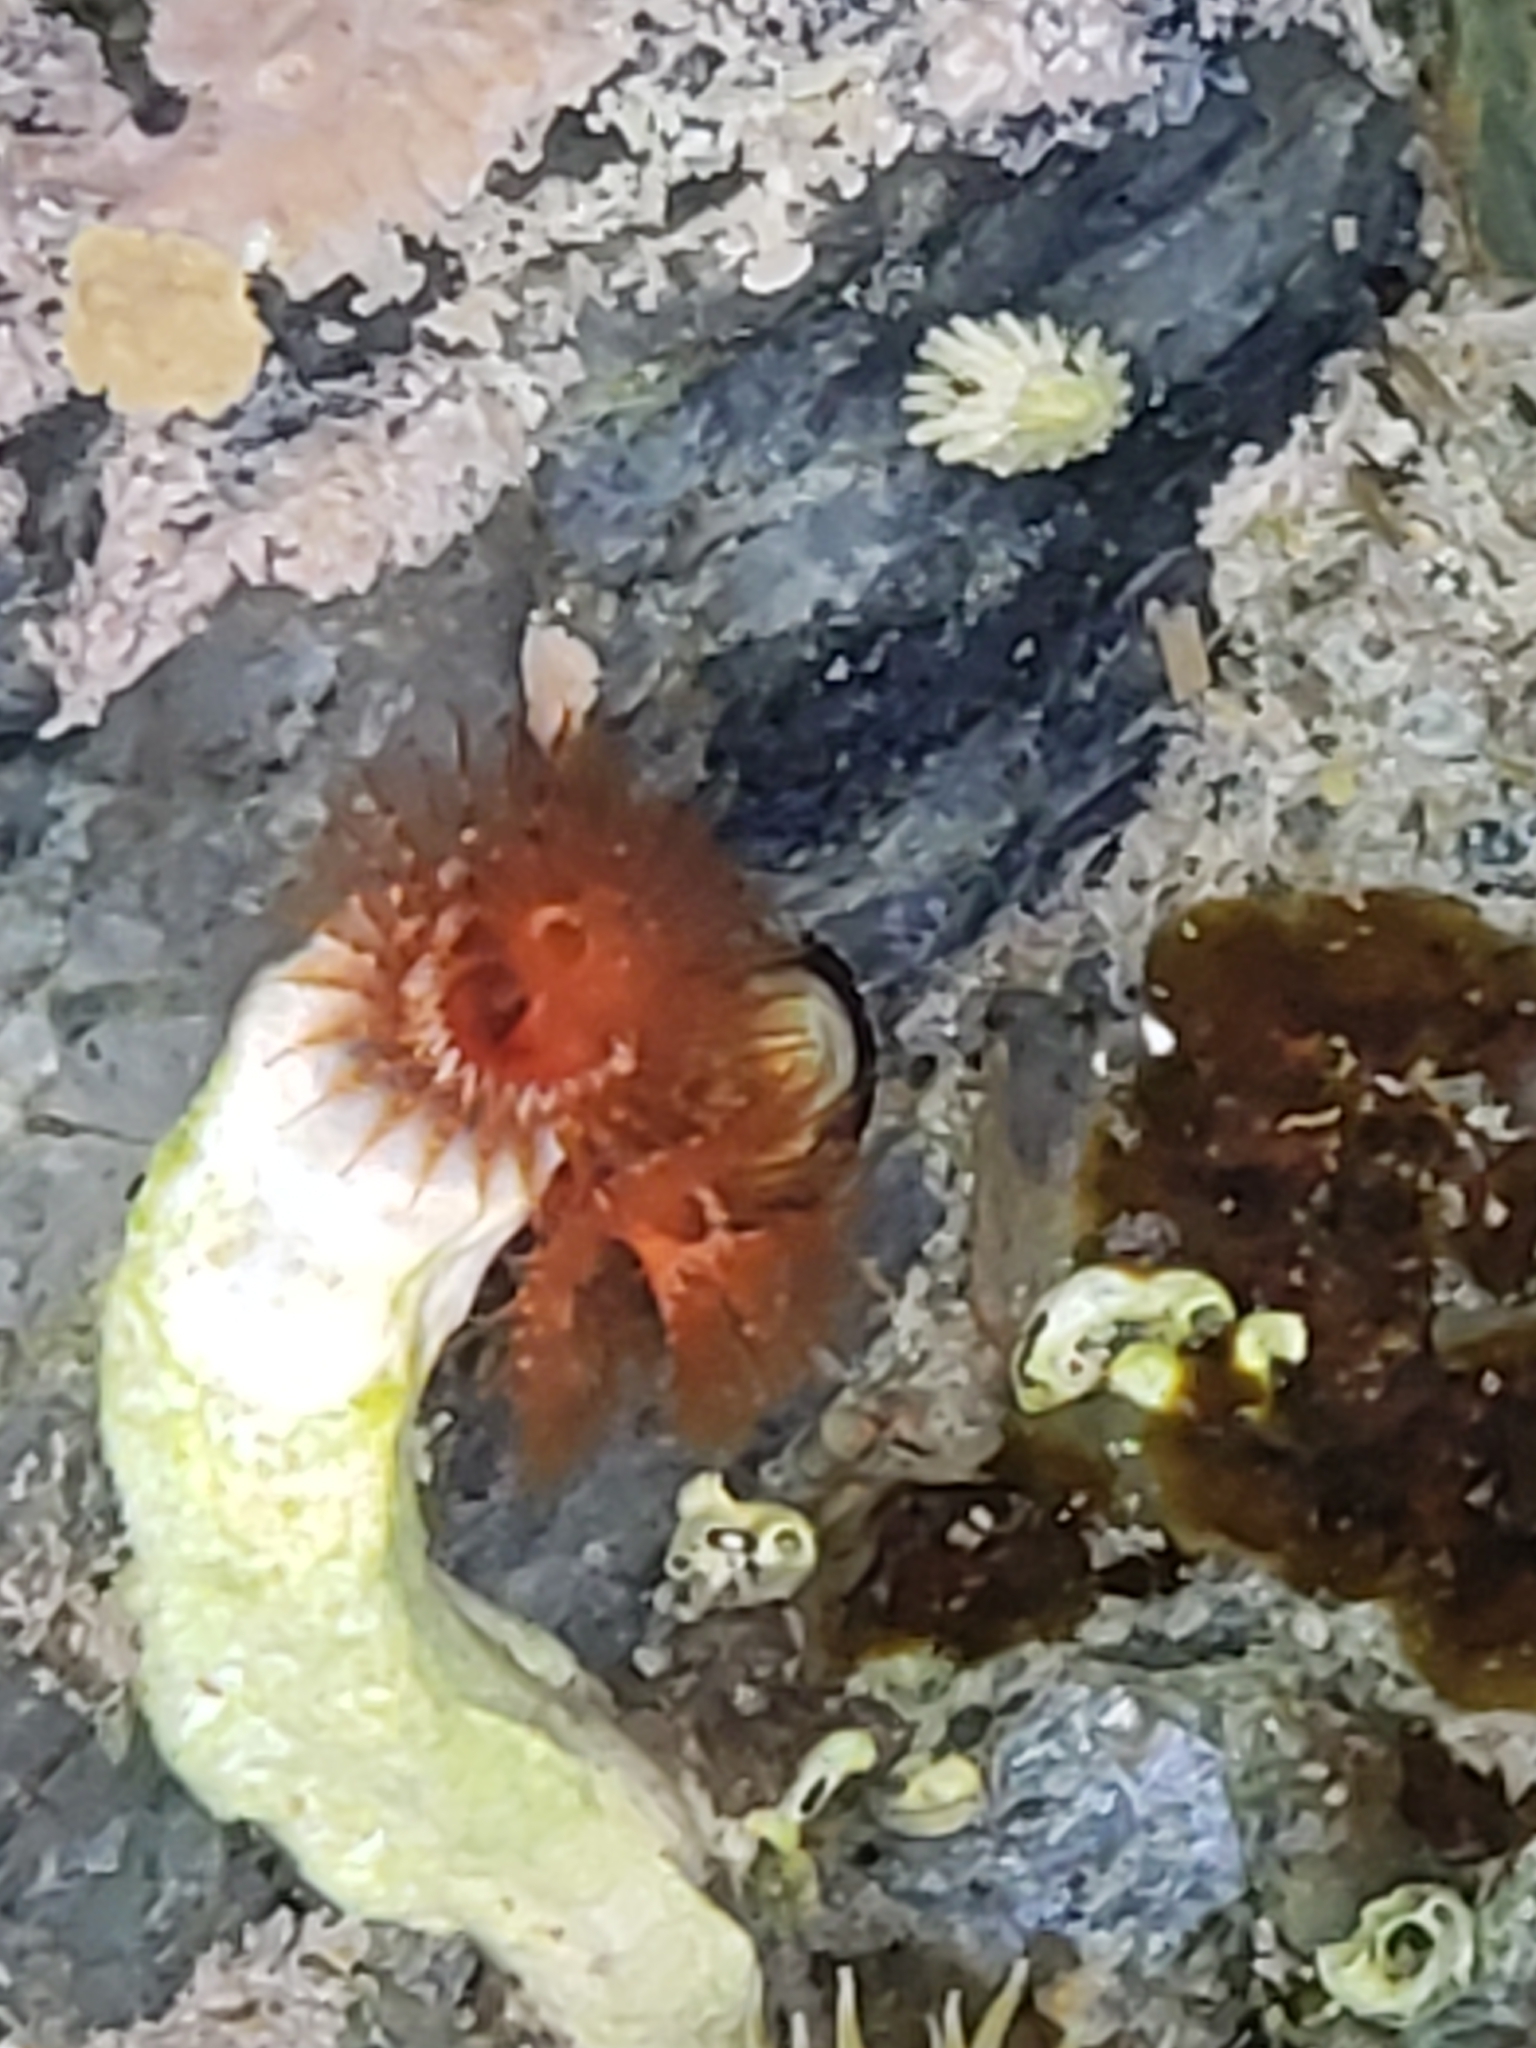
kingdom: Animalia
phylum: Annelida
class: Polychaeta
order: Sabellida
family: Serpulidae
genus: Spirobranchus
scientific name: Spirobranchus spinosus
